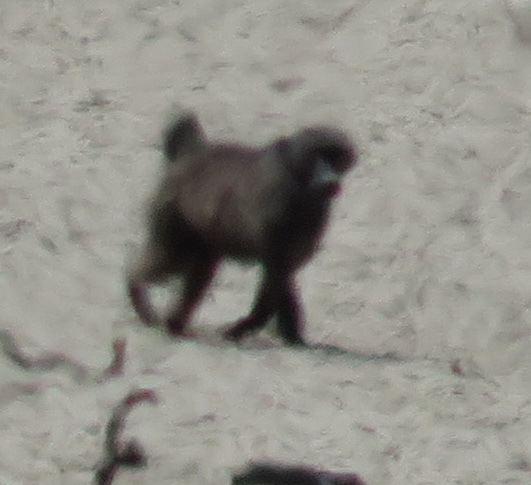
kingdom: Animalia
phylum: Chordata
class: Mammalia
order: Primates
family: Cercopithecidae
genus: Papio
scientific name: Papio ursinus
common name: Chacma baboon
